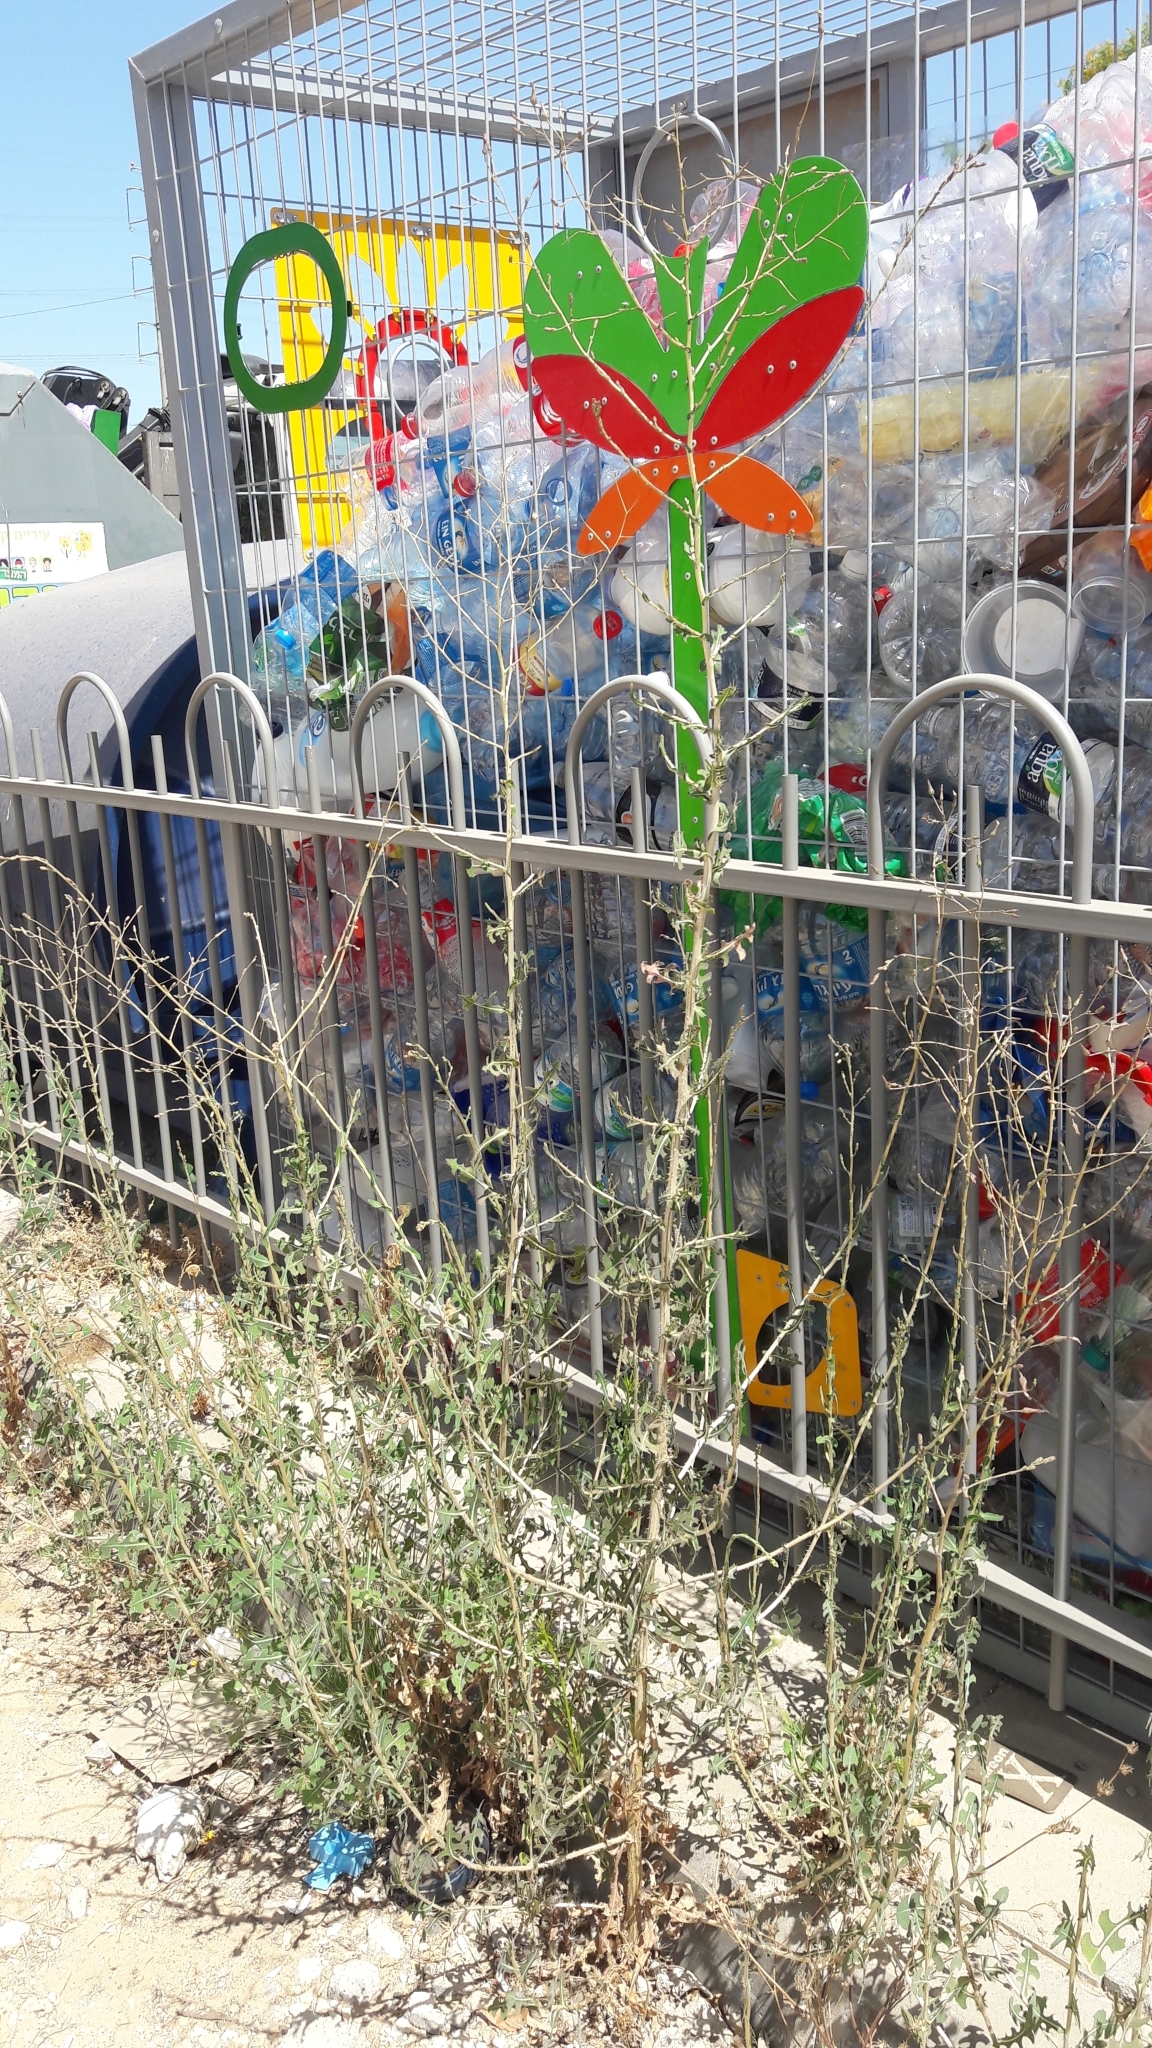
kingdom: Plantae
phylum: Tracheophyta
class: Magnoliopsida
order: Asterales
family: Asteraceae
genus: Lactuca
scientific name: Lactuca serriola
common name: Prickly lettuce
